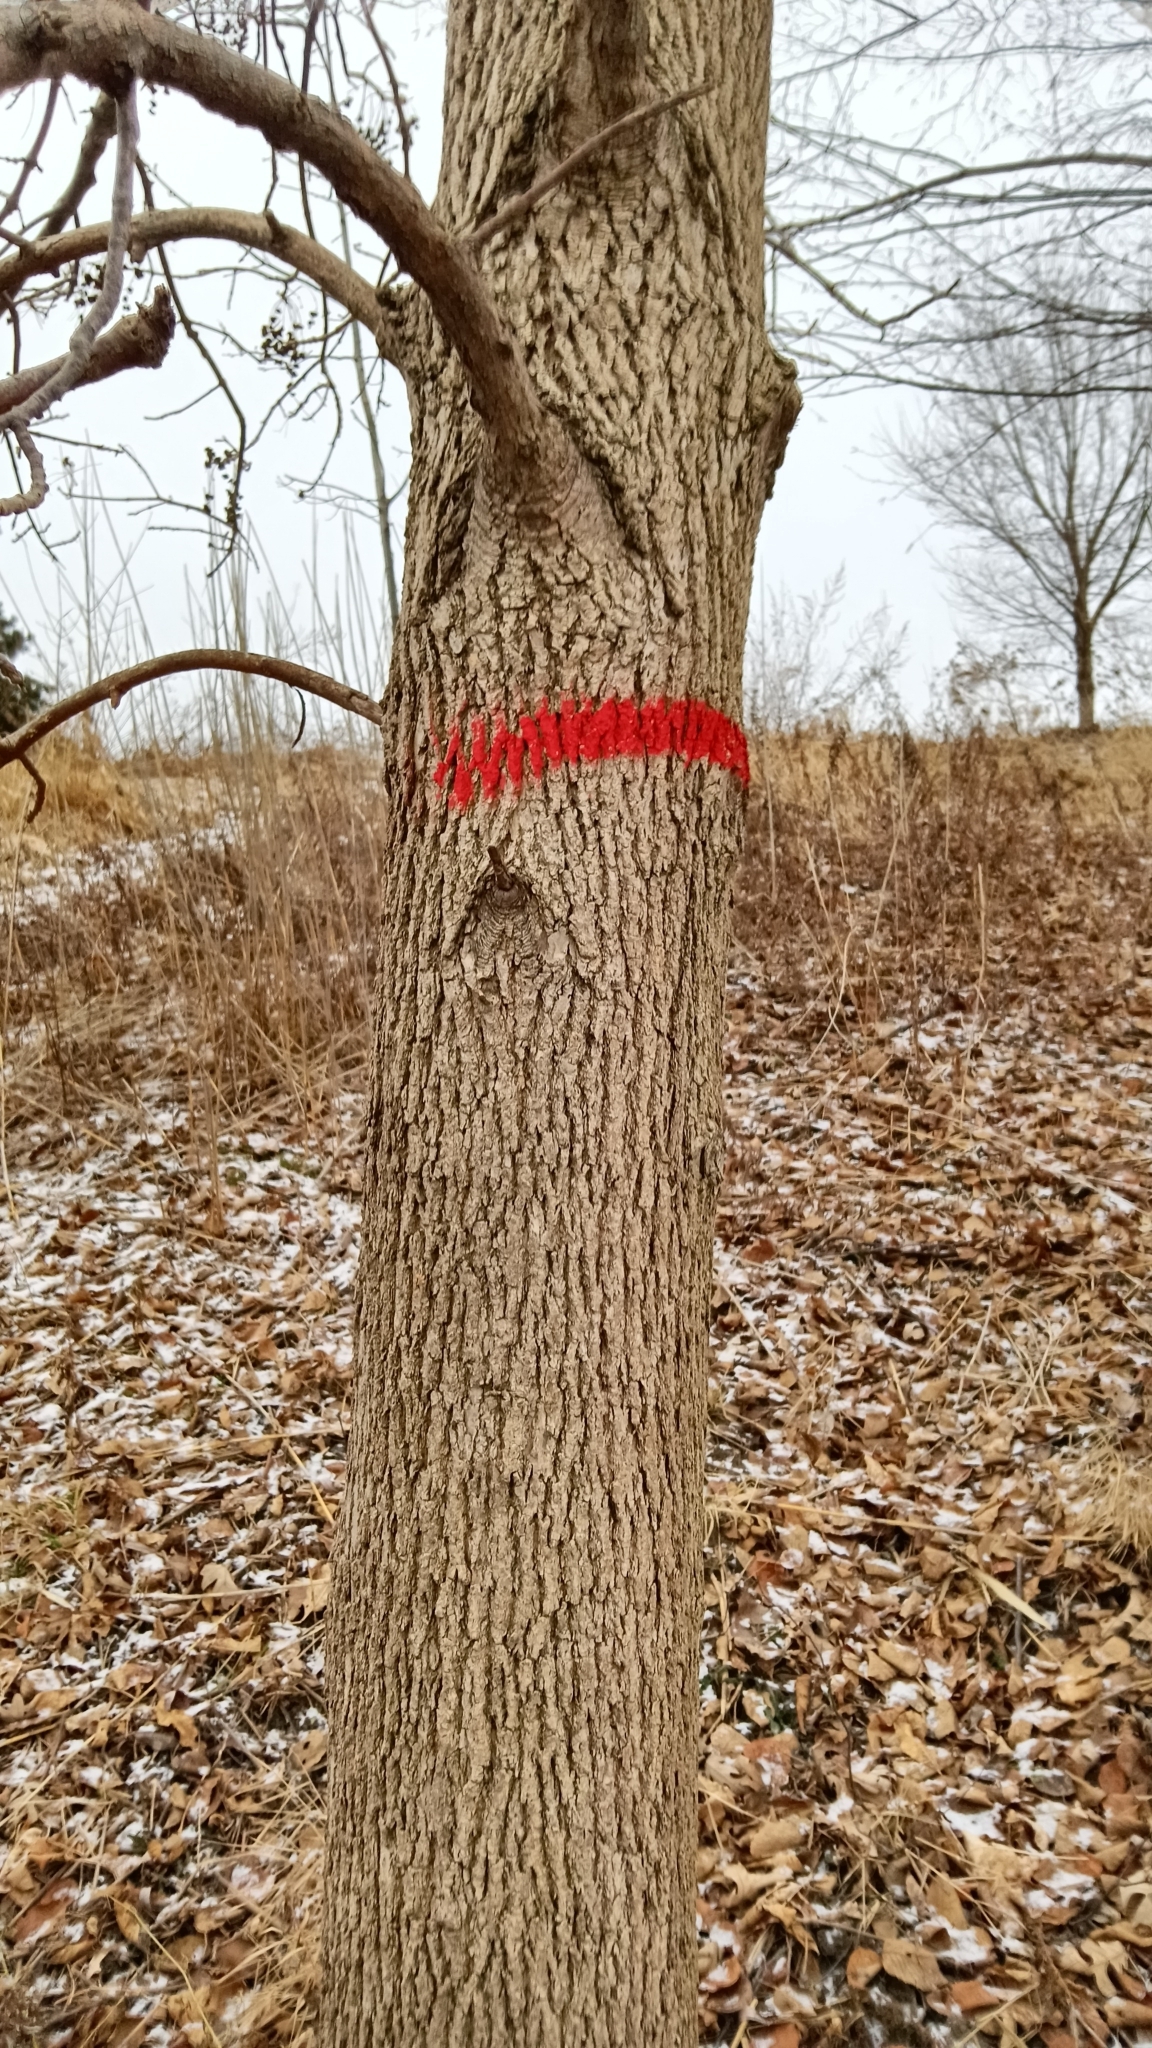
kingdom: Plantae
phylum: Tracheophyta
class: Magnoliopsida
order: Lamiales
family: Oleaceae
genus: Fraxinus
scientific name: Fraxinus pennsylvanica
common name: Green ash
